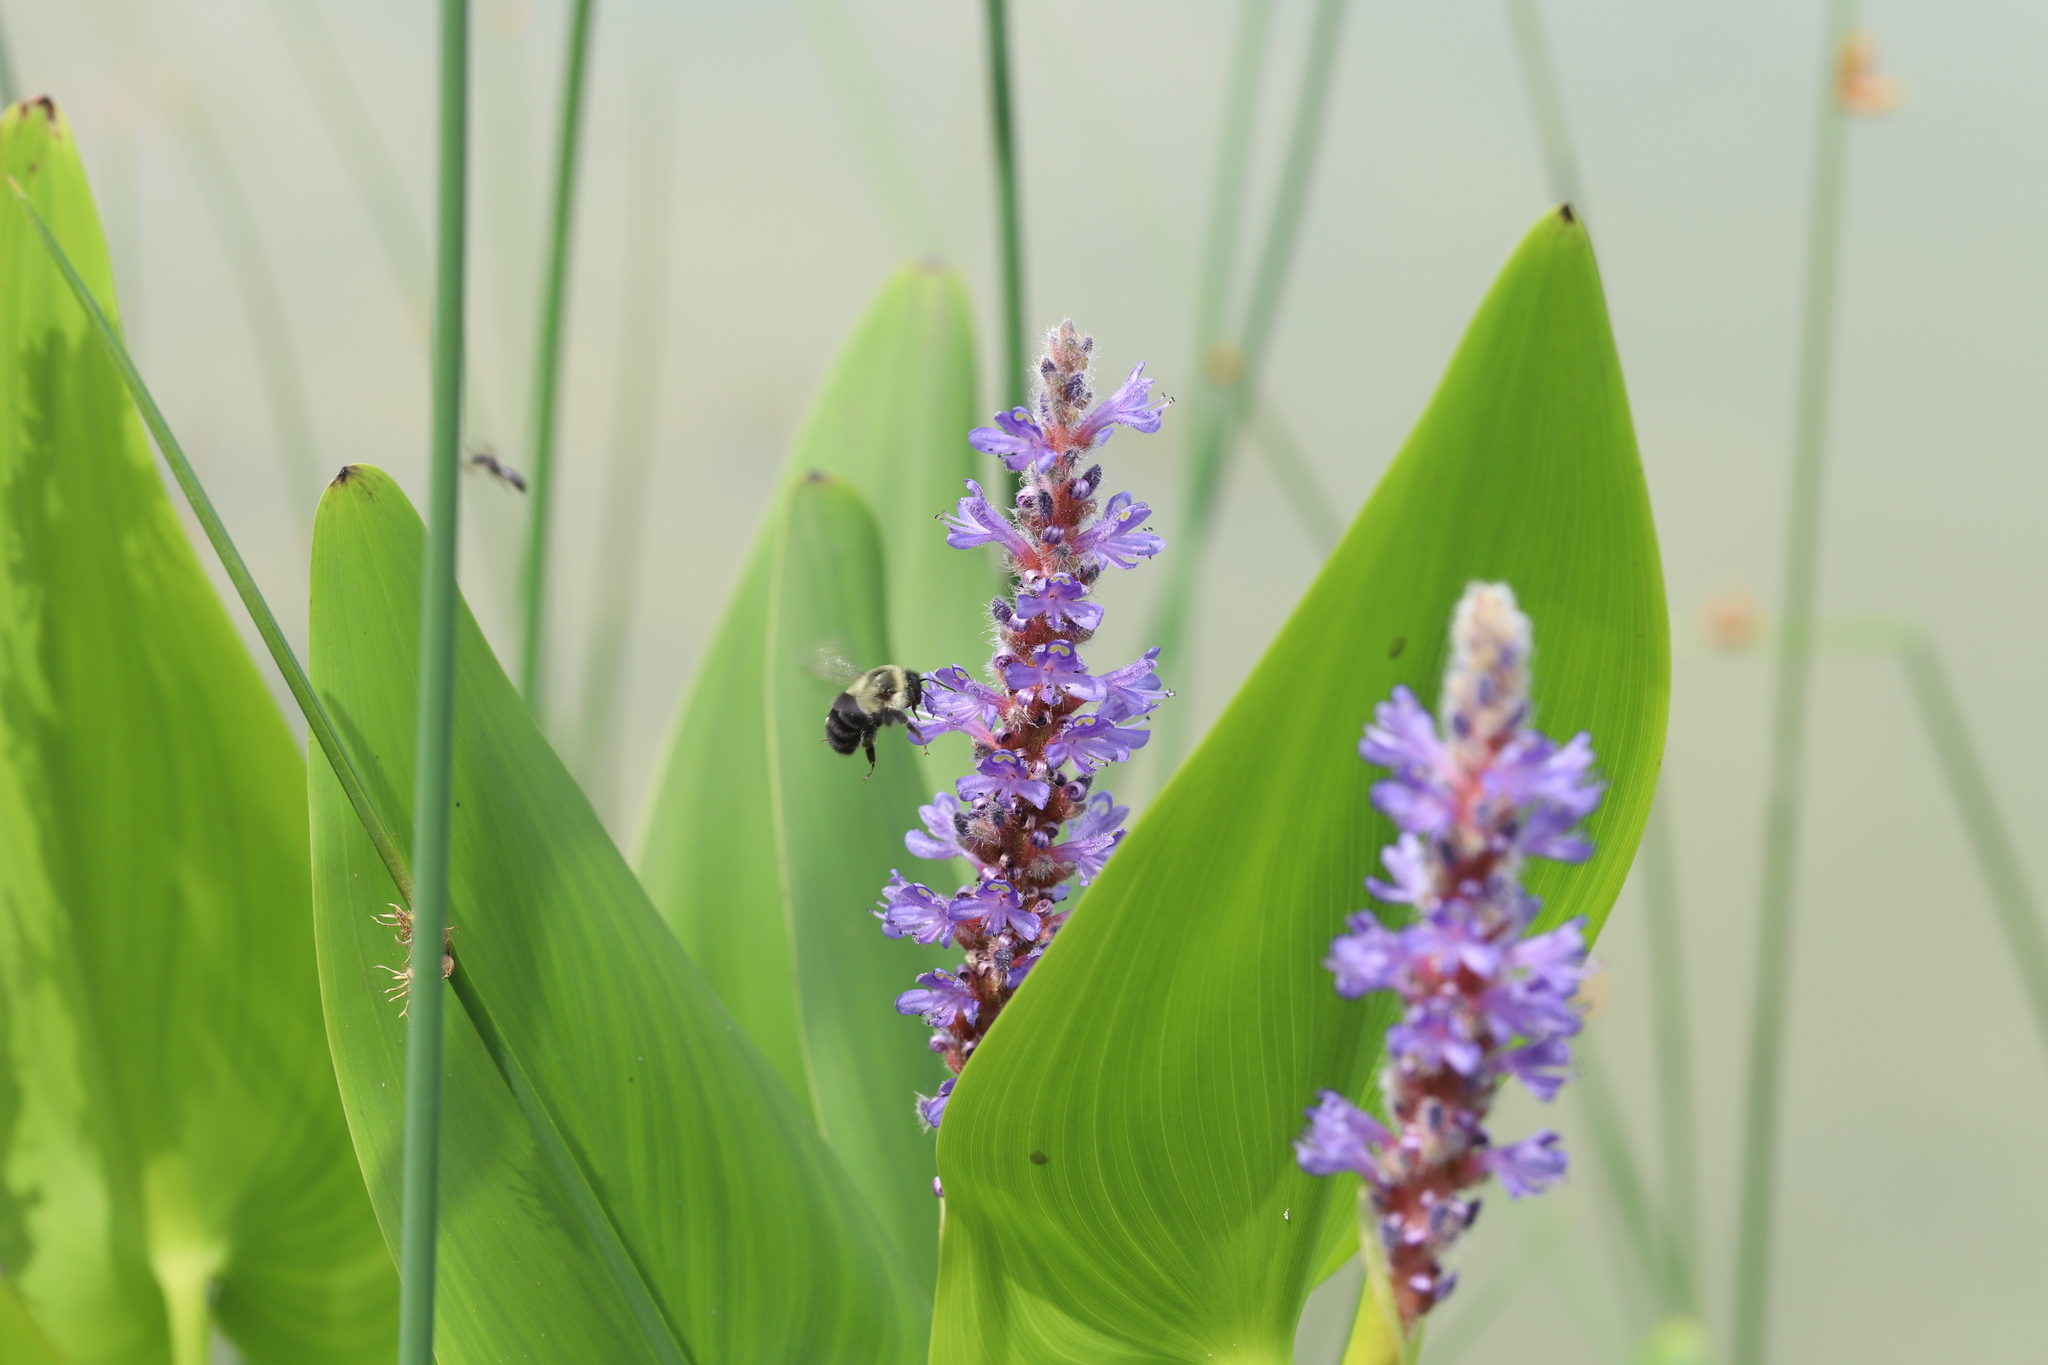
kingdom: Plantae
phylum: Tracheophyta
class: Liliopsida
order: Commelinales
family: Pontederiaceae
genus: Pontederia
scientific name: Pontederia cordata
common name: Pickerelweed
